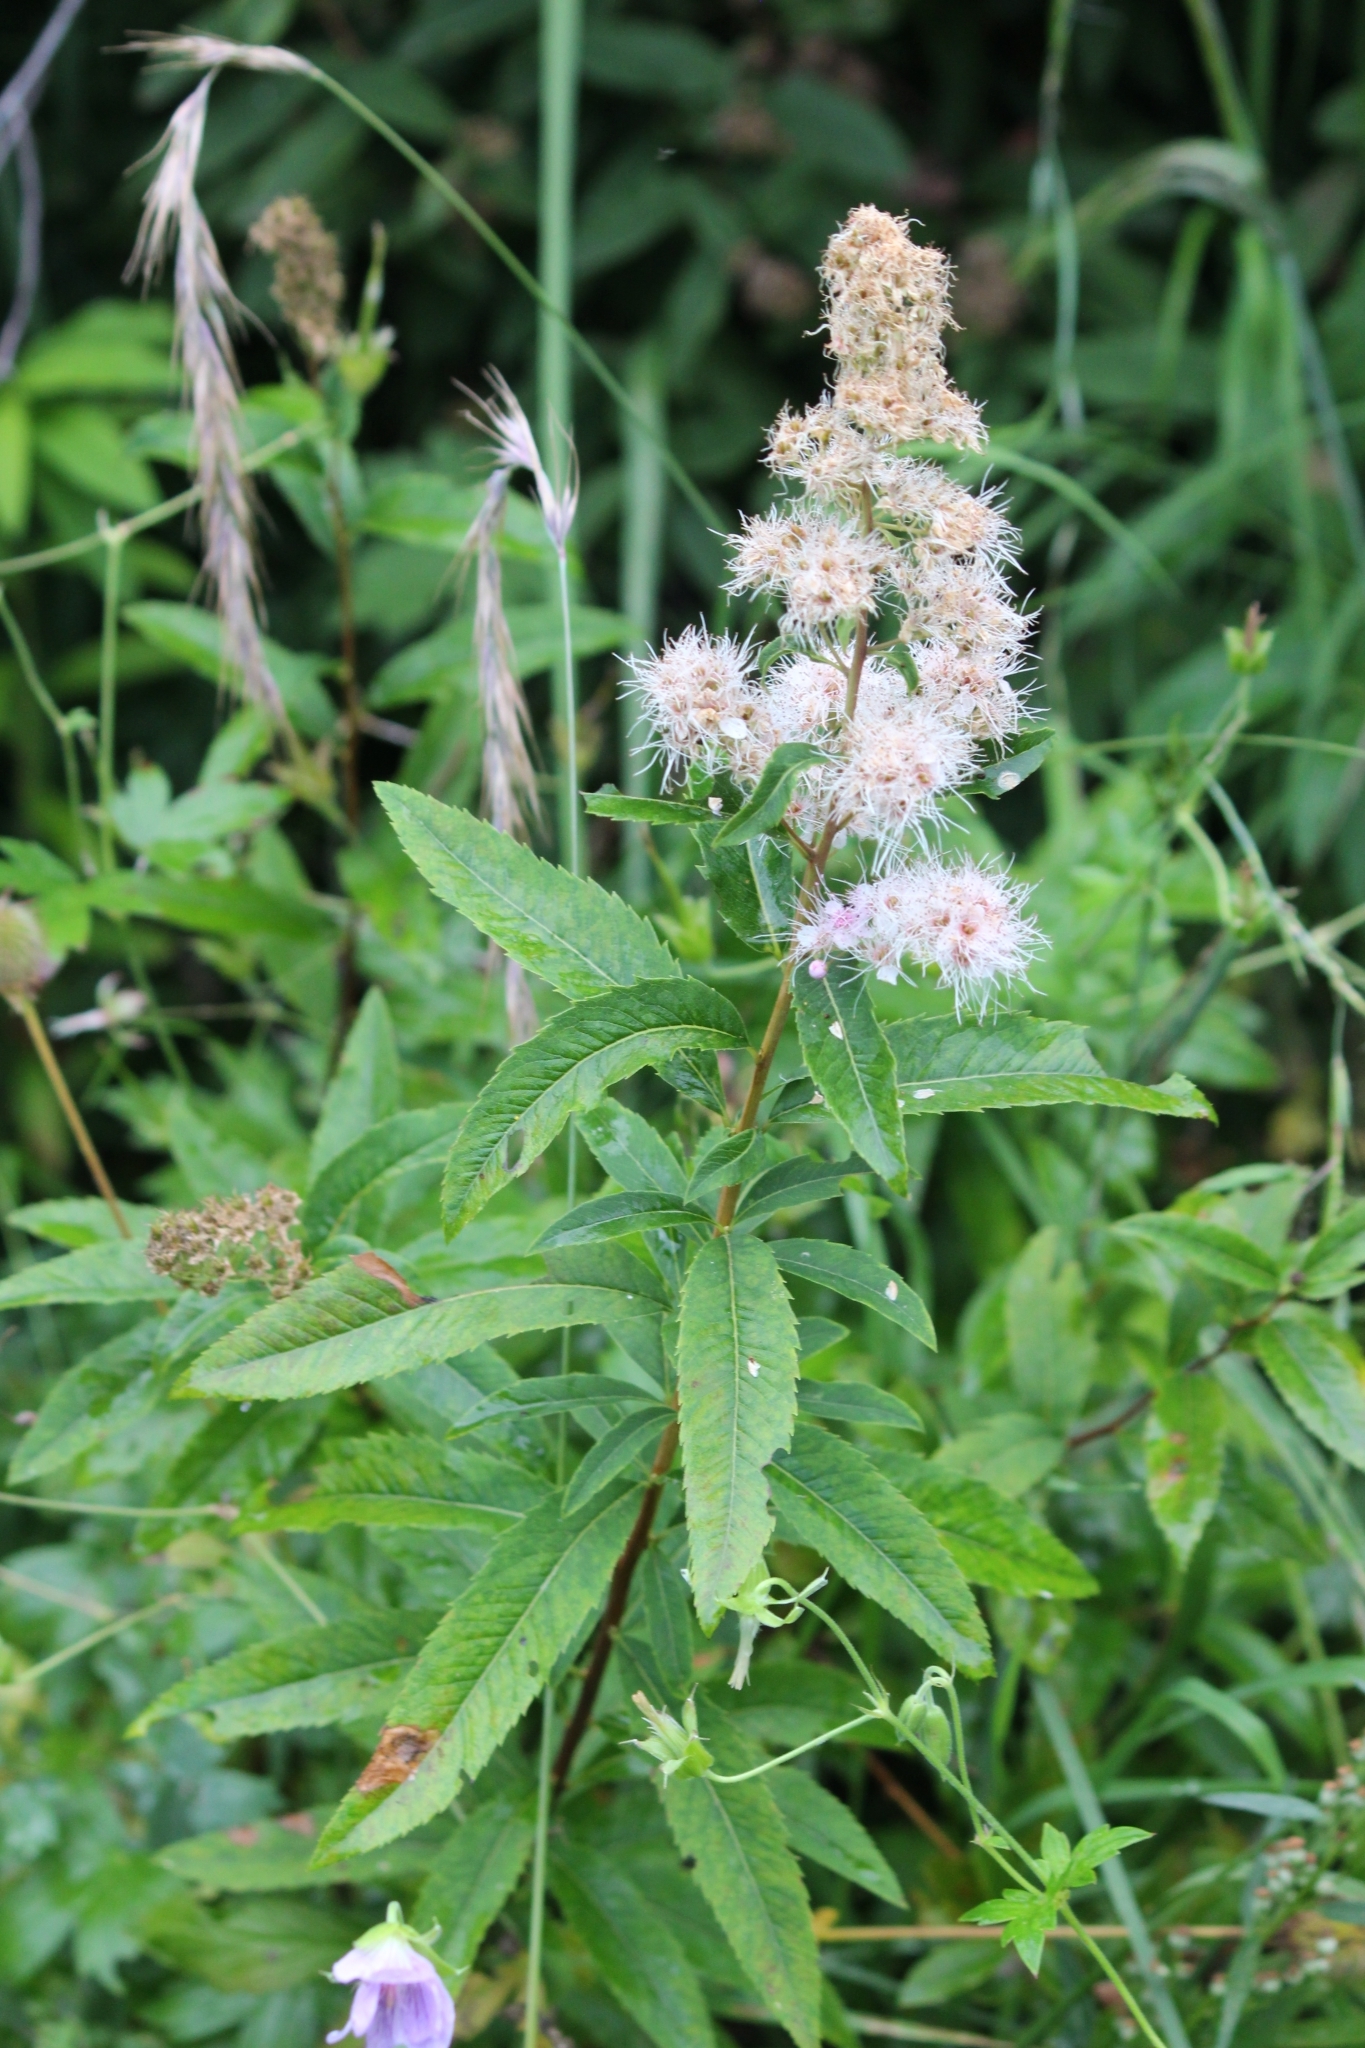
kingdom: Plantae
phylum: Tracheophyta
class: Magnoliopsida
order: Rosales
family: Rosaceae
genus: Spiraea
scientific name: Spiraea salicifolia
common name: Bridewort
